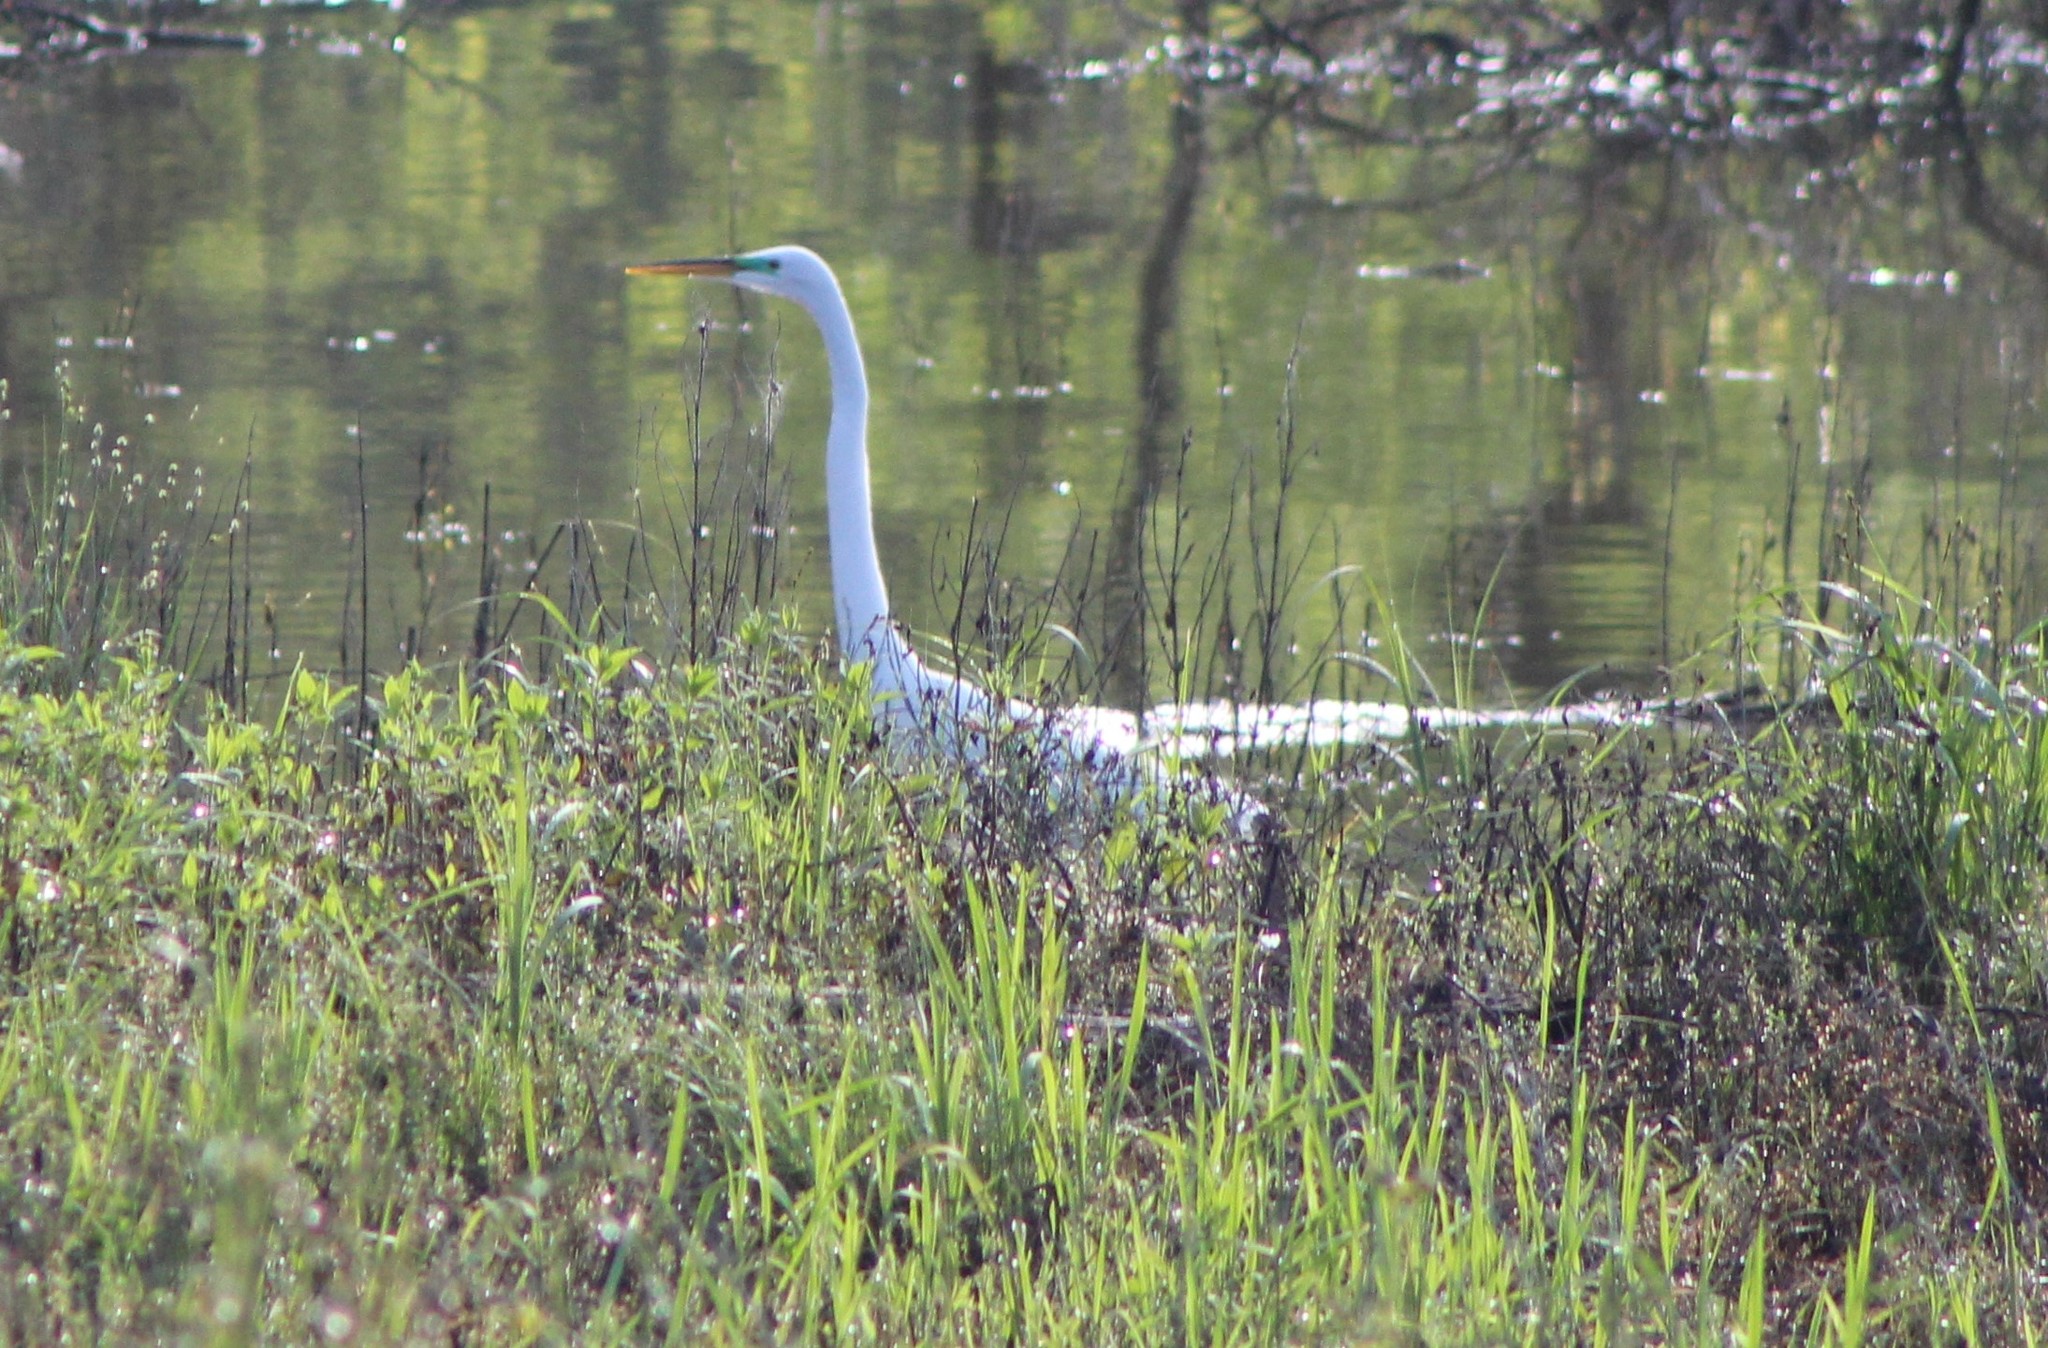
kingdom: Animalia
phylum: Chordata
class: Aves
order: Pelecaniformes
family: Ardeidae
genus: Ardea
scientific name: Ardea alba
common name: Great egret
